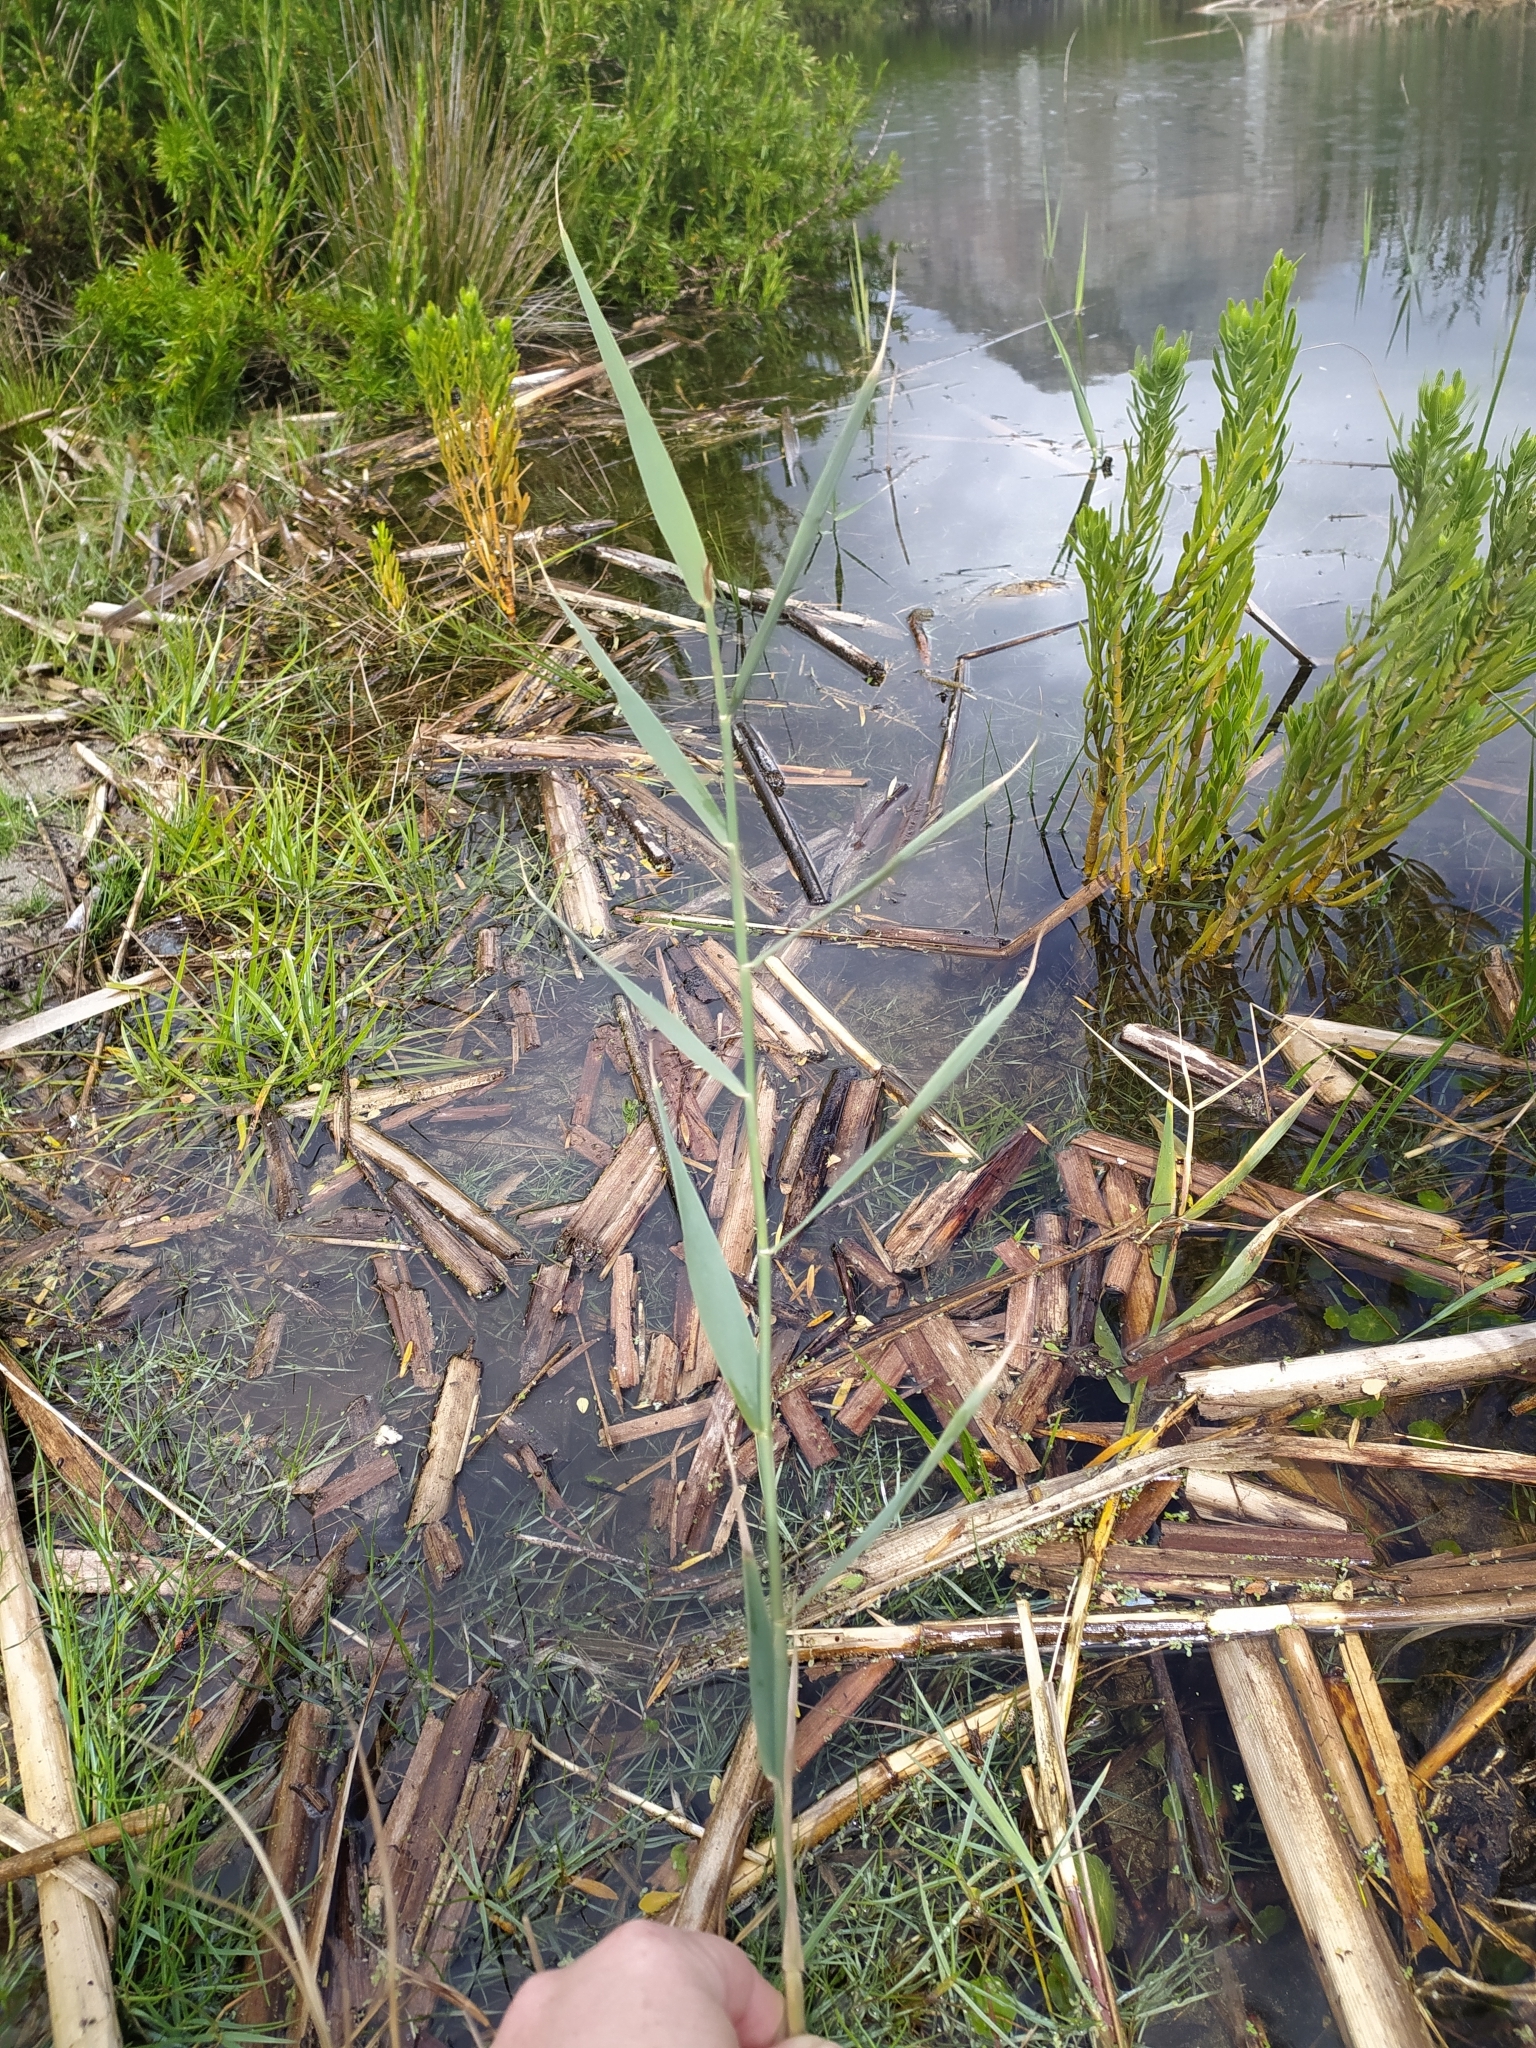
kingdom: Plantae
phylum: Tracheophyta
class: Liliopsida
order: Poales
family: Poaceae
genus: Phragmites
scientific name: Phragmites australis
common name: Common reed
